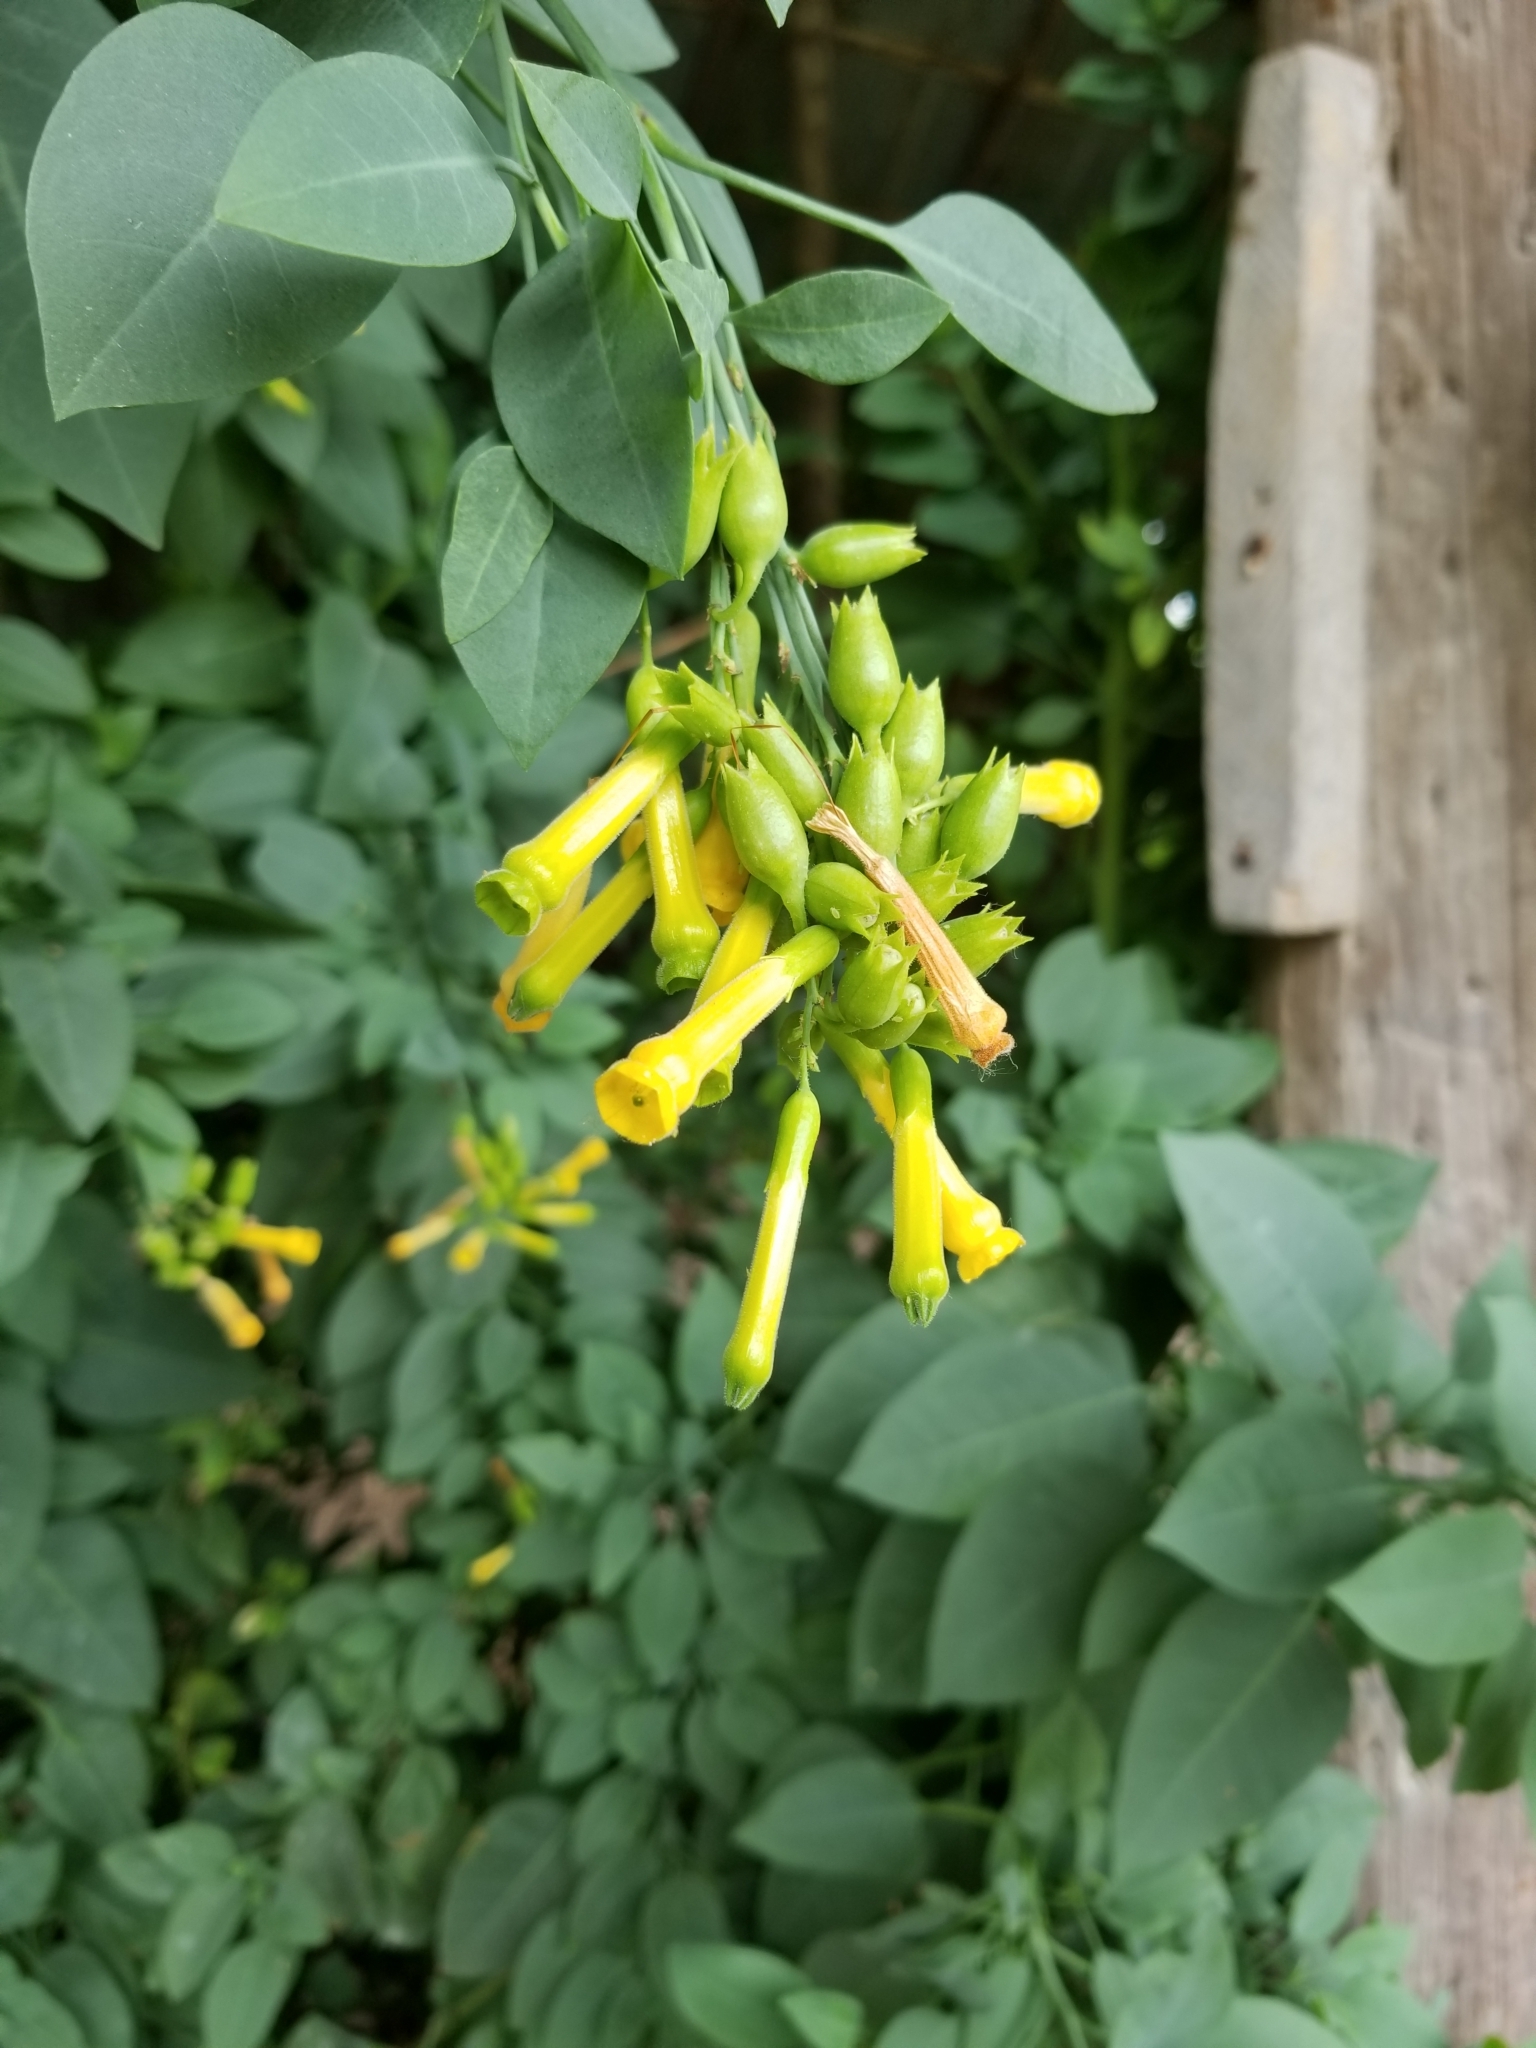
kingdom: Plantae
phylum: Tracheophyta
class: Magnoliopsida
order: Solanales
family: Solanaceae
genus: Nicotiana
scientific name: Nicotiana glauca
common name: Tree tobacco
